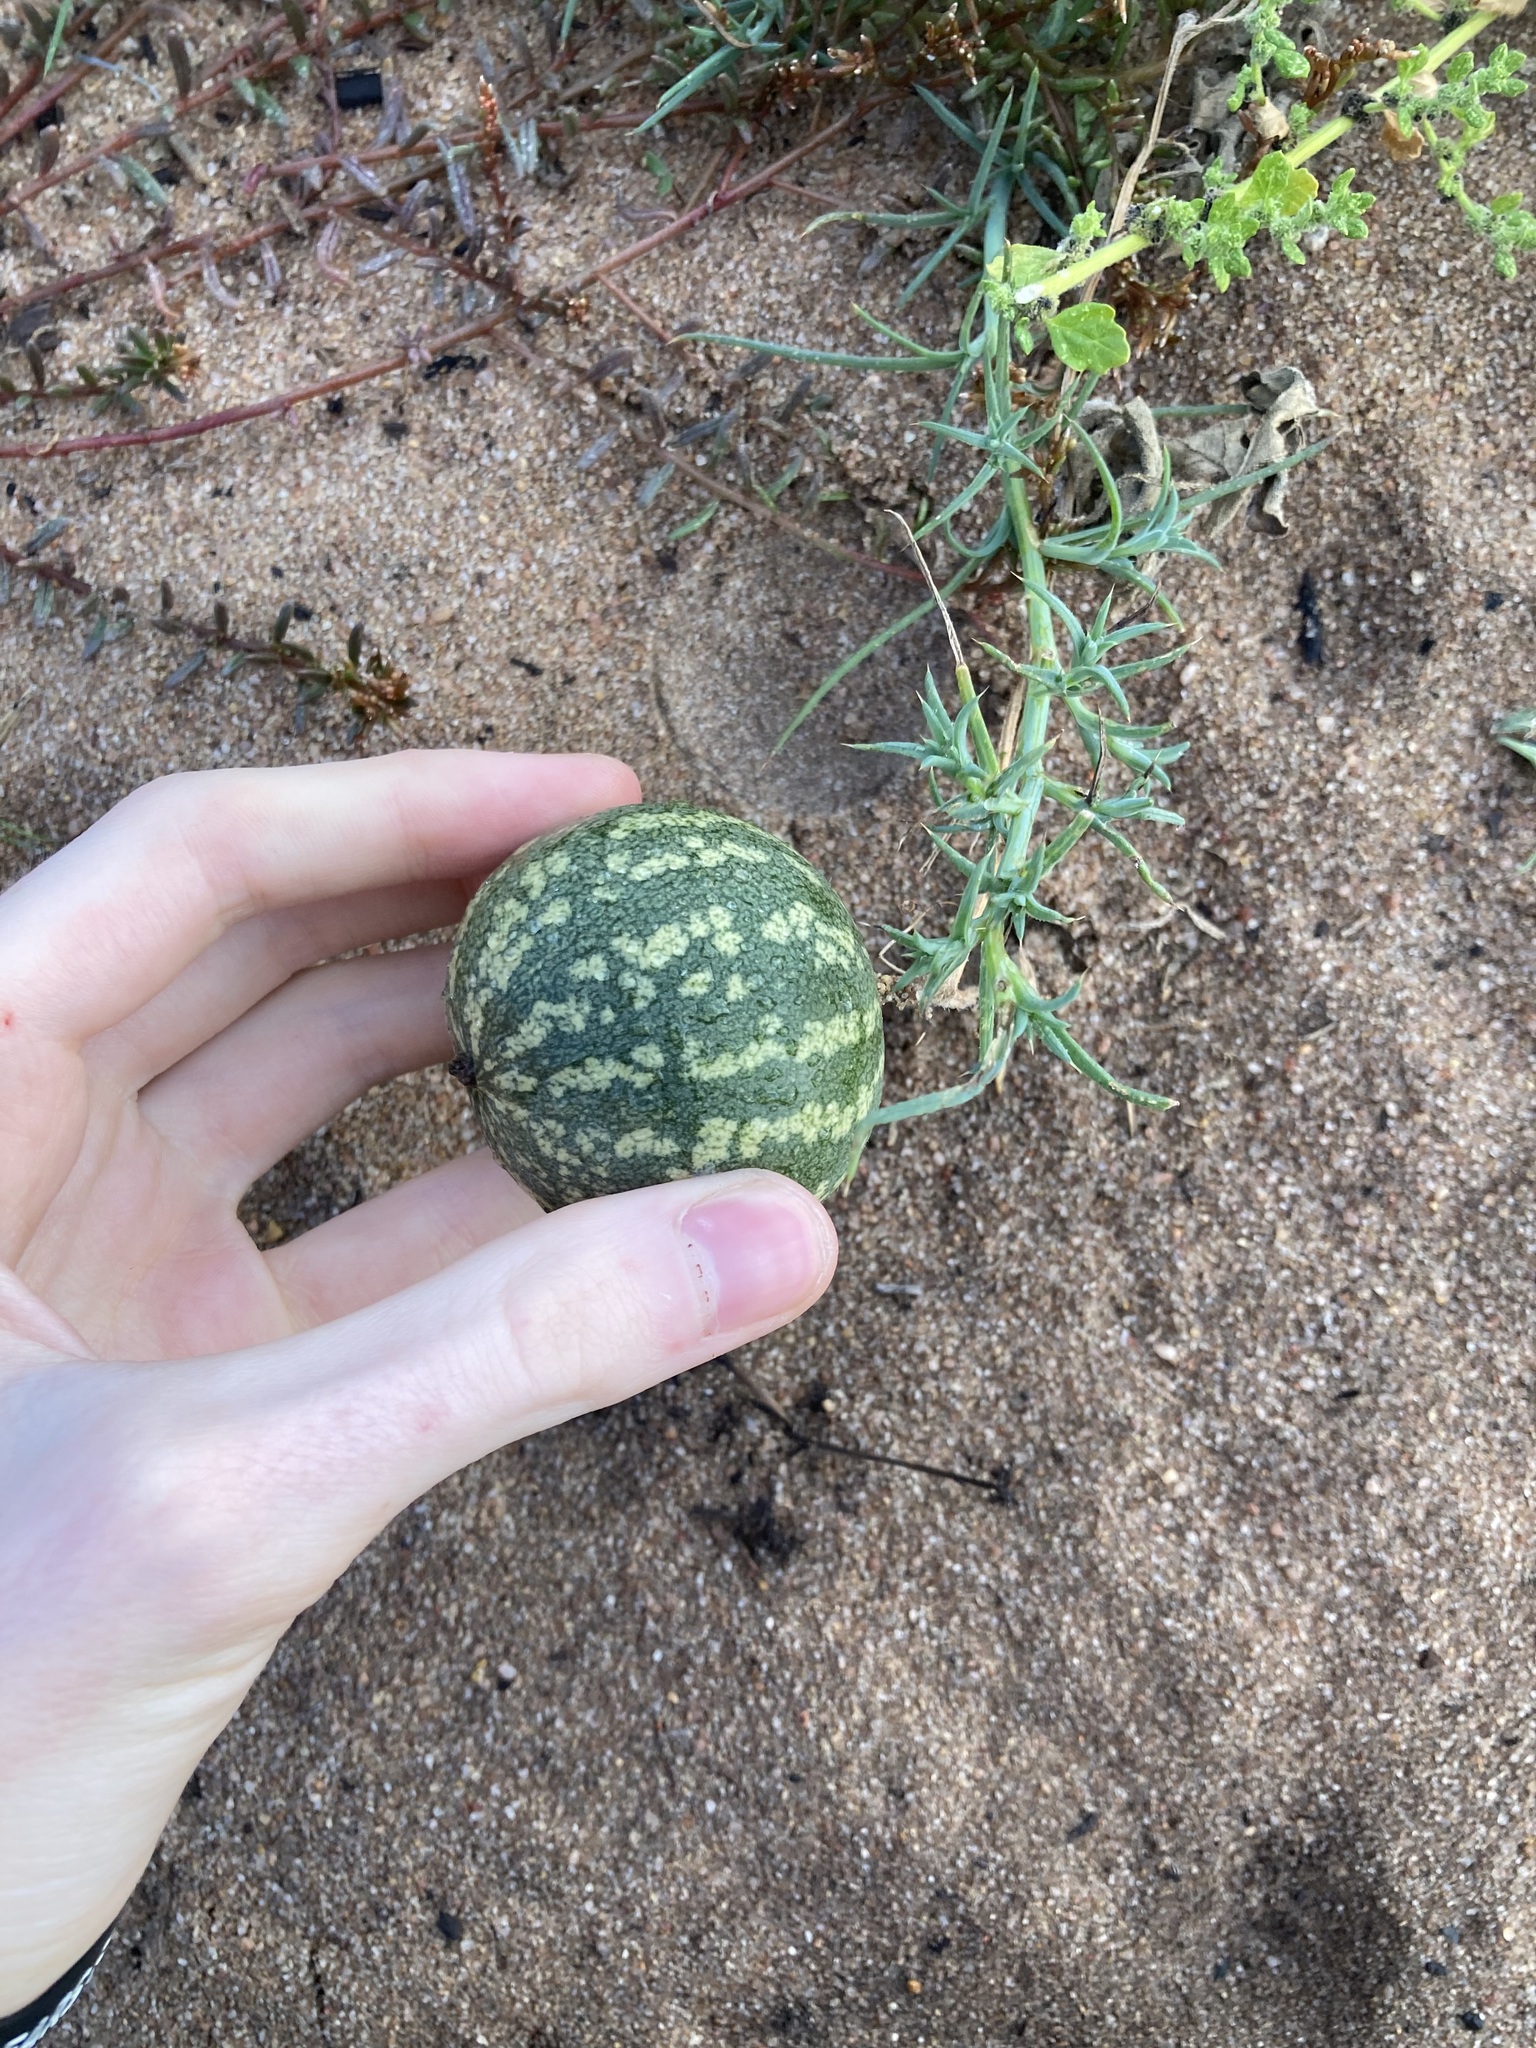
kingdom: Plantae
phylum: Tracheophyta
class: Magnoliopsida
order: Cucurbitales
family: Cucurbitaceae
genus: Citrullus
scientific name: Citrullus amarus
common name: Fodder-melon
